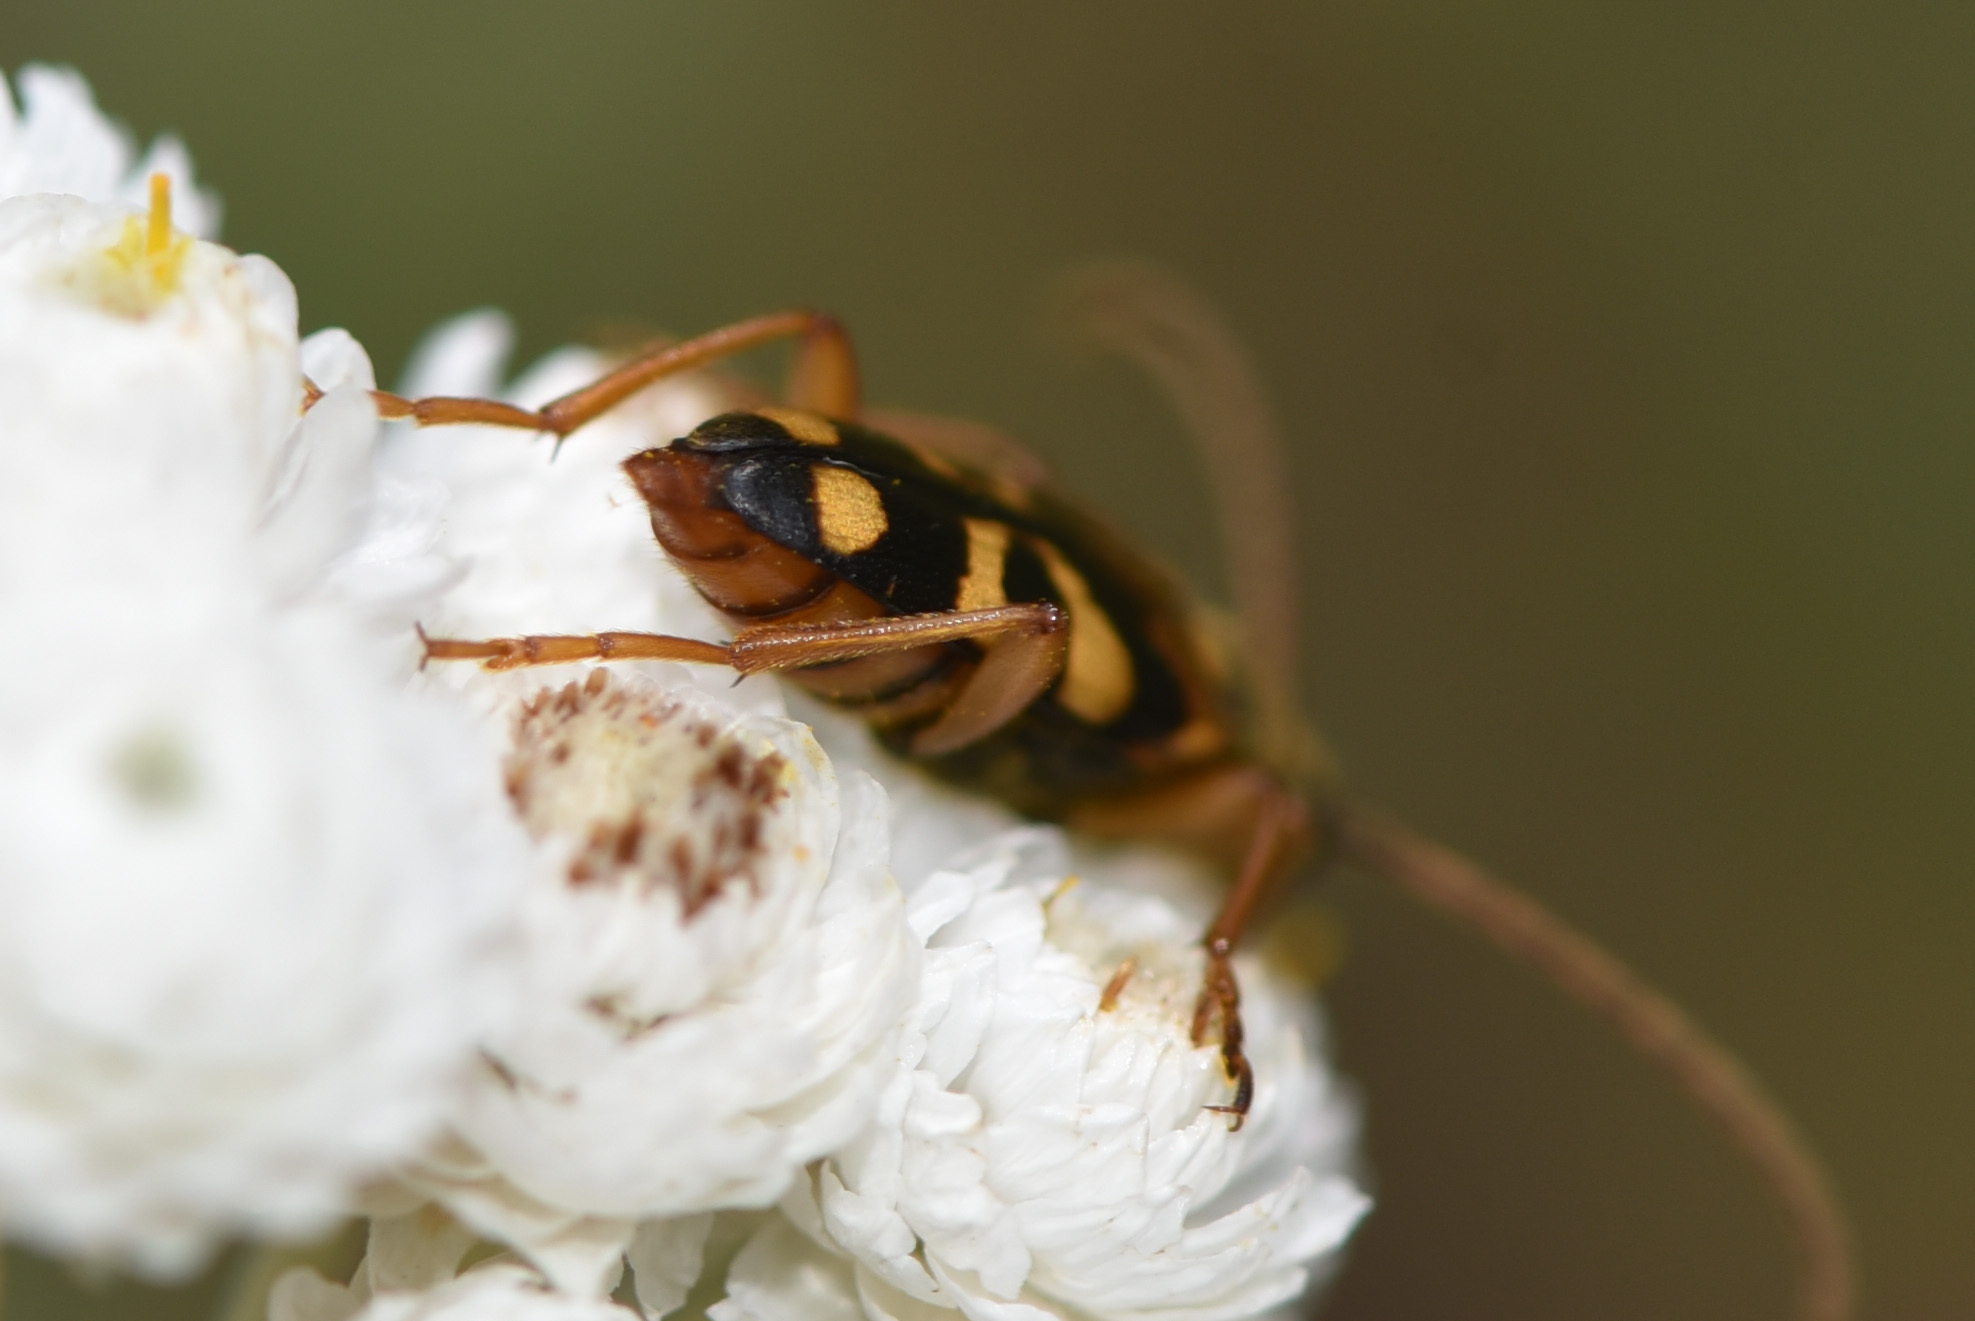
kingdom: Animalia
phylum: Arthropoda
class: Insecta
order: Coleoptera
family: Cerambycidae
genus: Xestoleptura
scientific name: Xestoleptura crassipes
